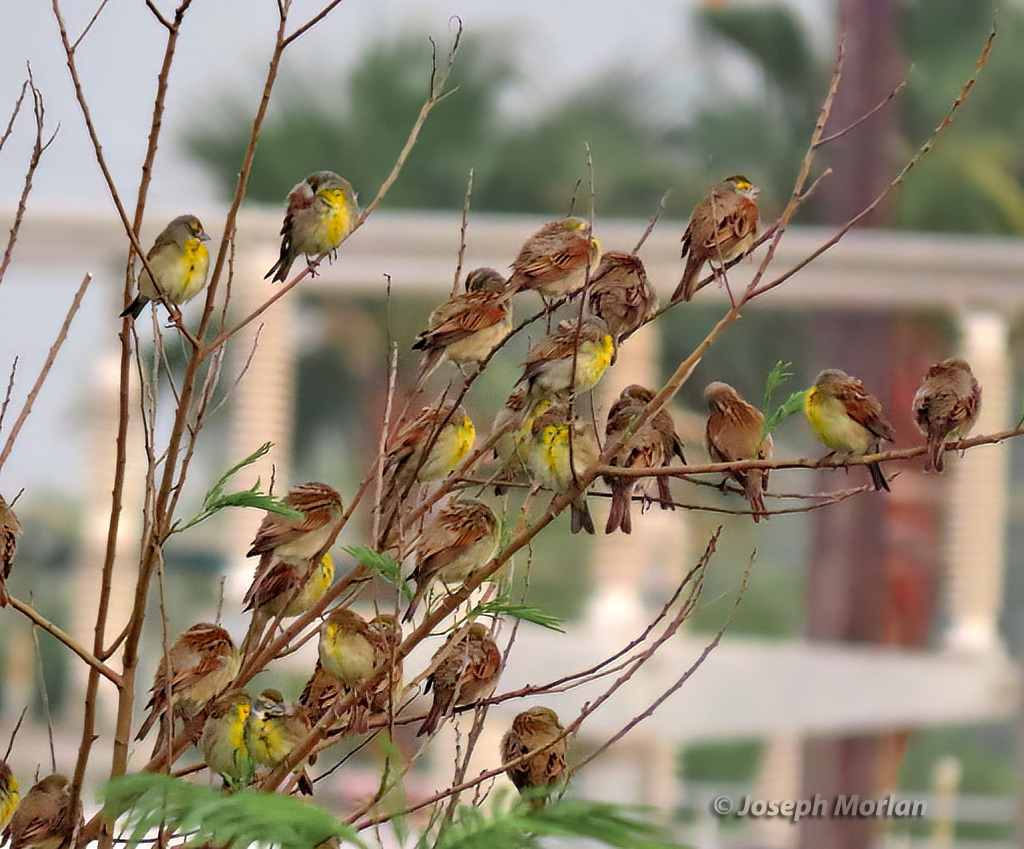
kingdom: Animalia
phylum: Chordata
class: Aves
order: Passeriformes
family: Cardinalidae
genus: Spiza
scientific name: Spiza americana
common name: Dickcissel
